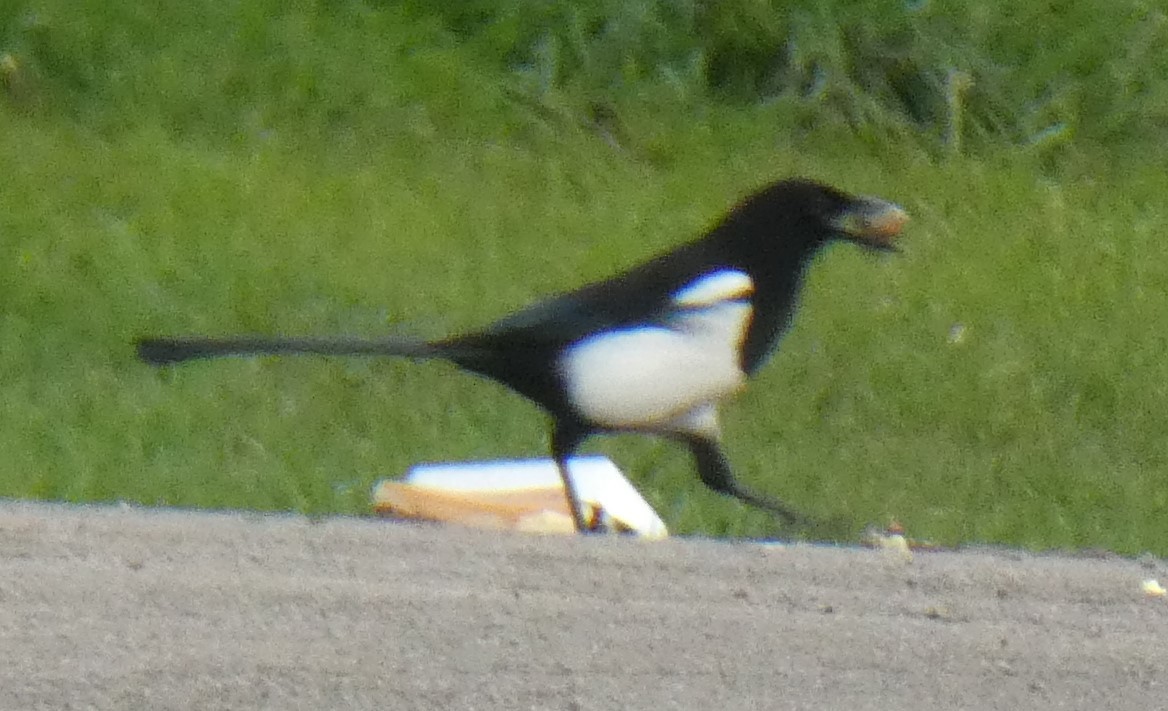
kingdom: Animalia
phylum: Chordata
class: Aves
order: Passeriformes
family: Corvidae
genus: Pica
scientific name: Pica pica
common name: Eurasian magpie
